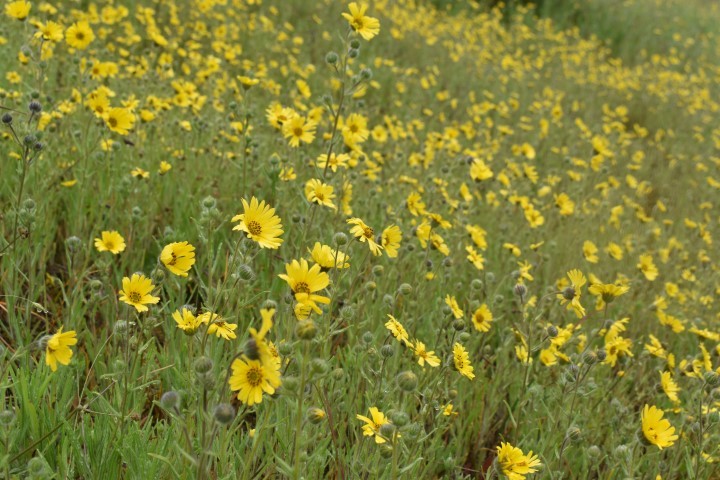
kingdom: Plantae
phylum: Tracheophyta
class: Magnoliopsida
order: Asterales
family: Asteraceae
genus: Madia
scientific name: Madia elegans
